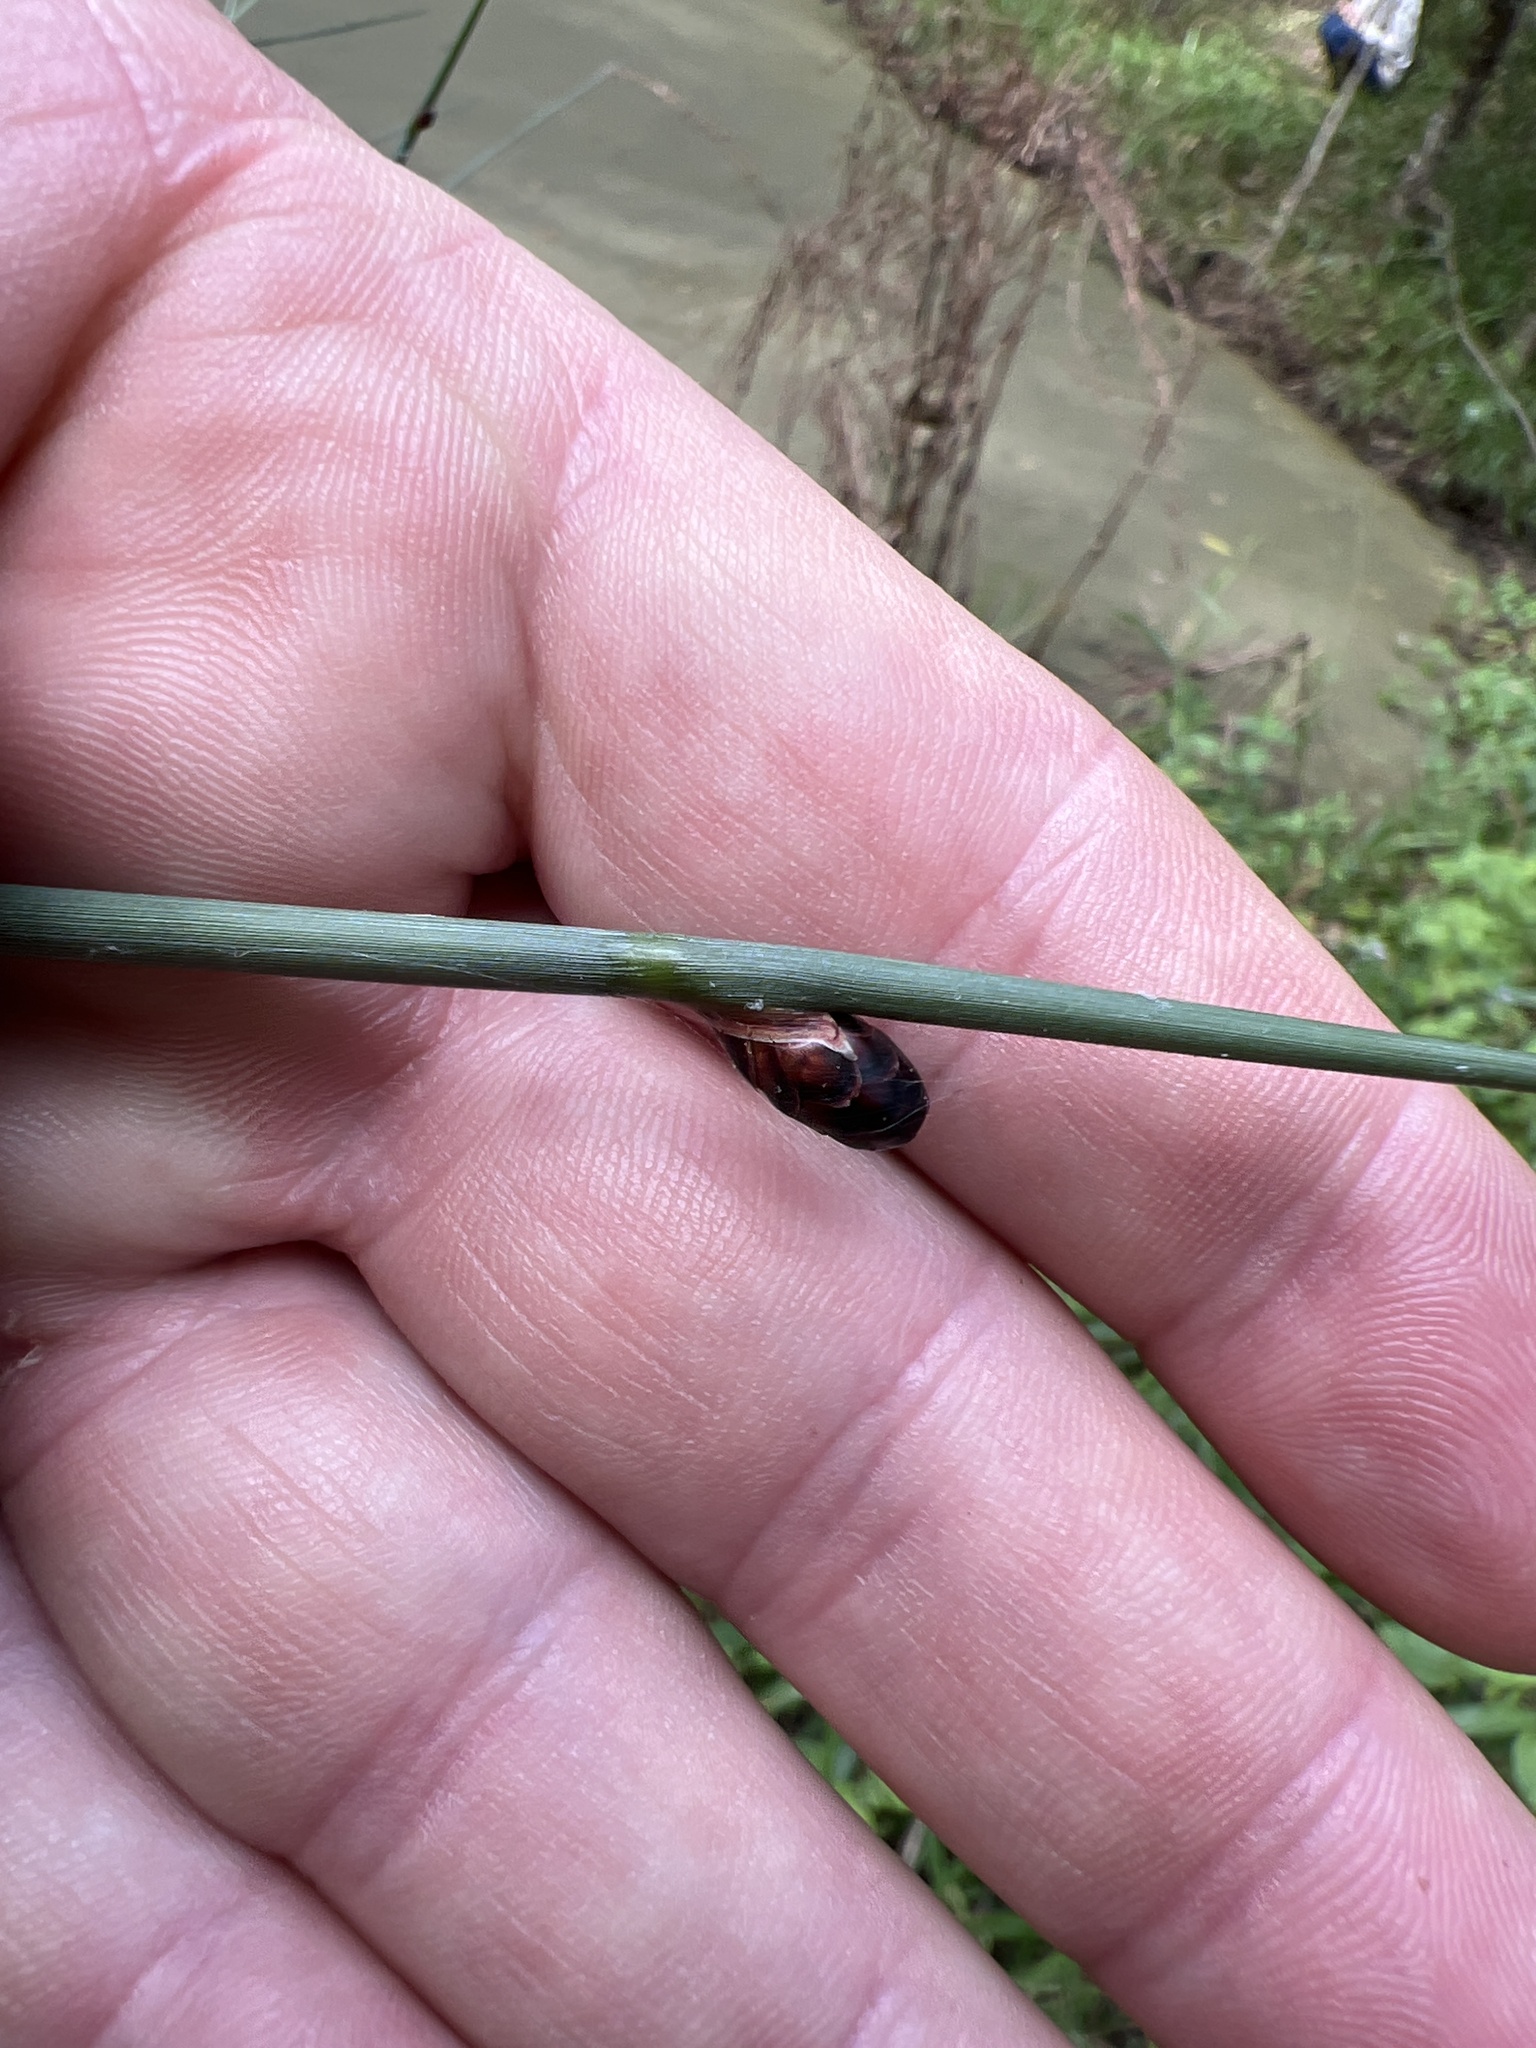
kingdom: Plantae
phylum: Tracheophyta
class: Liliopsida
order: Poales
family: Cyperaceae
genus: Lepironia
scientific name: Lepironia articulata
